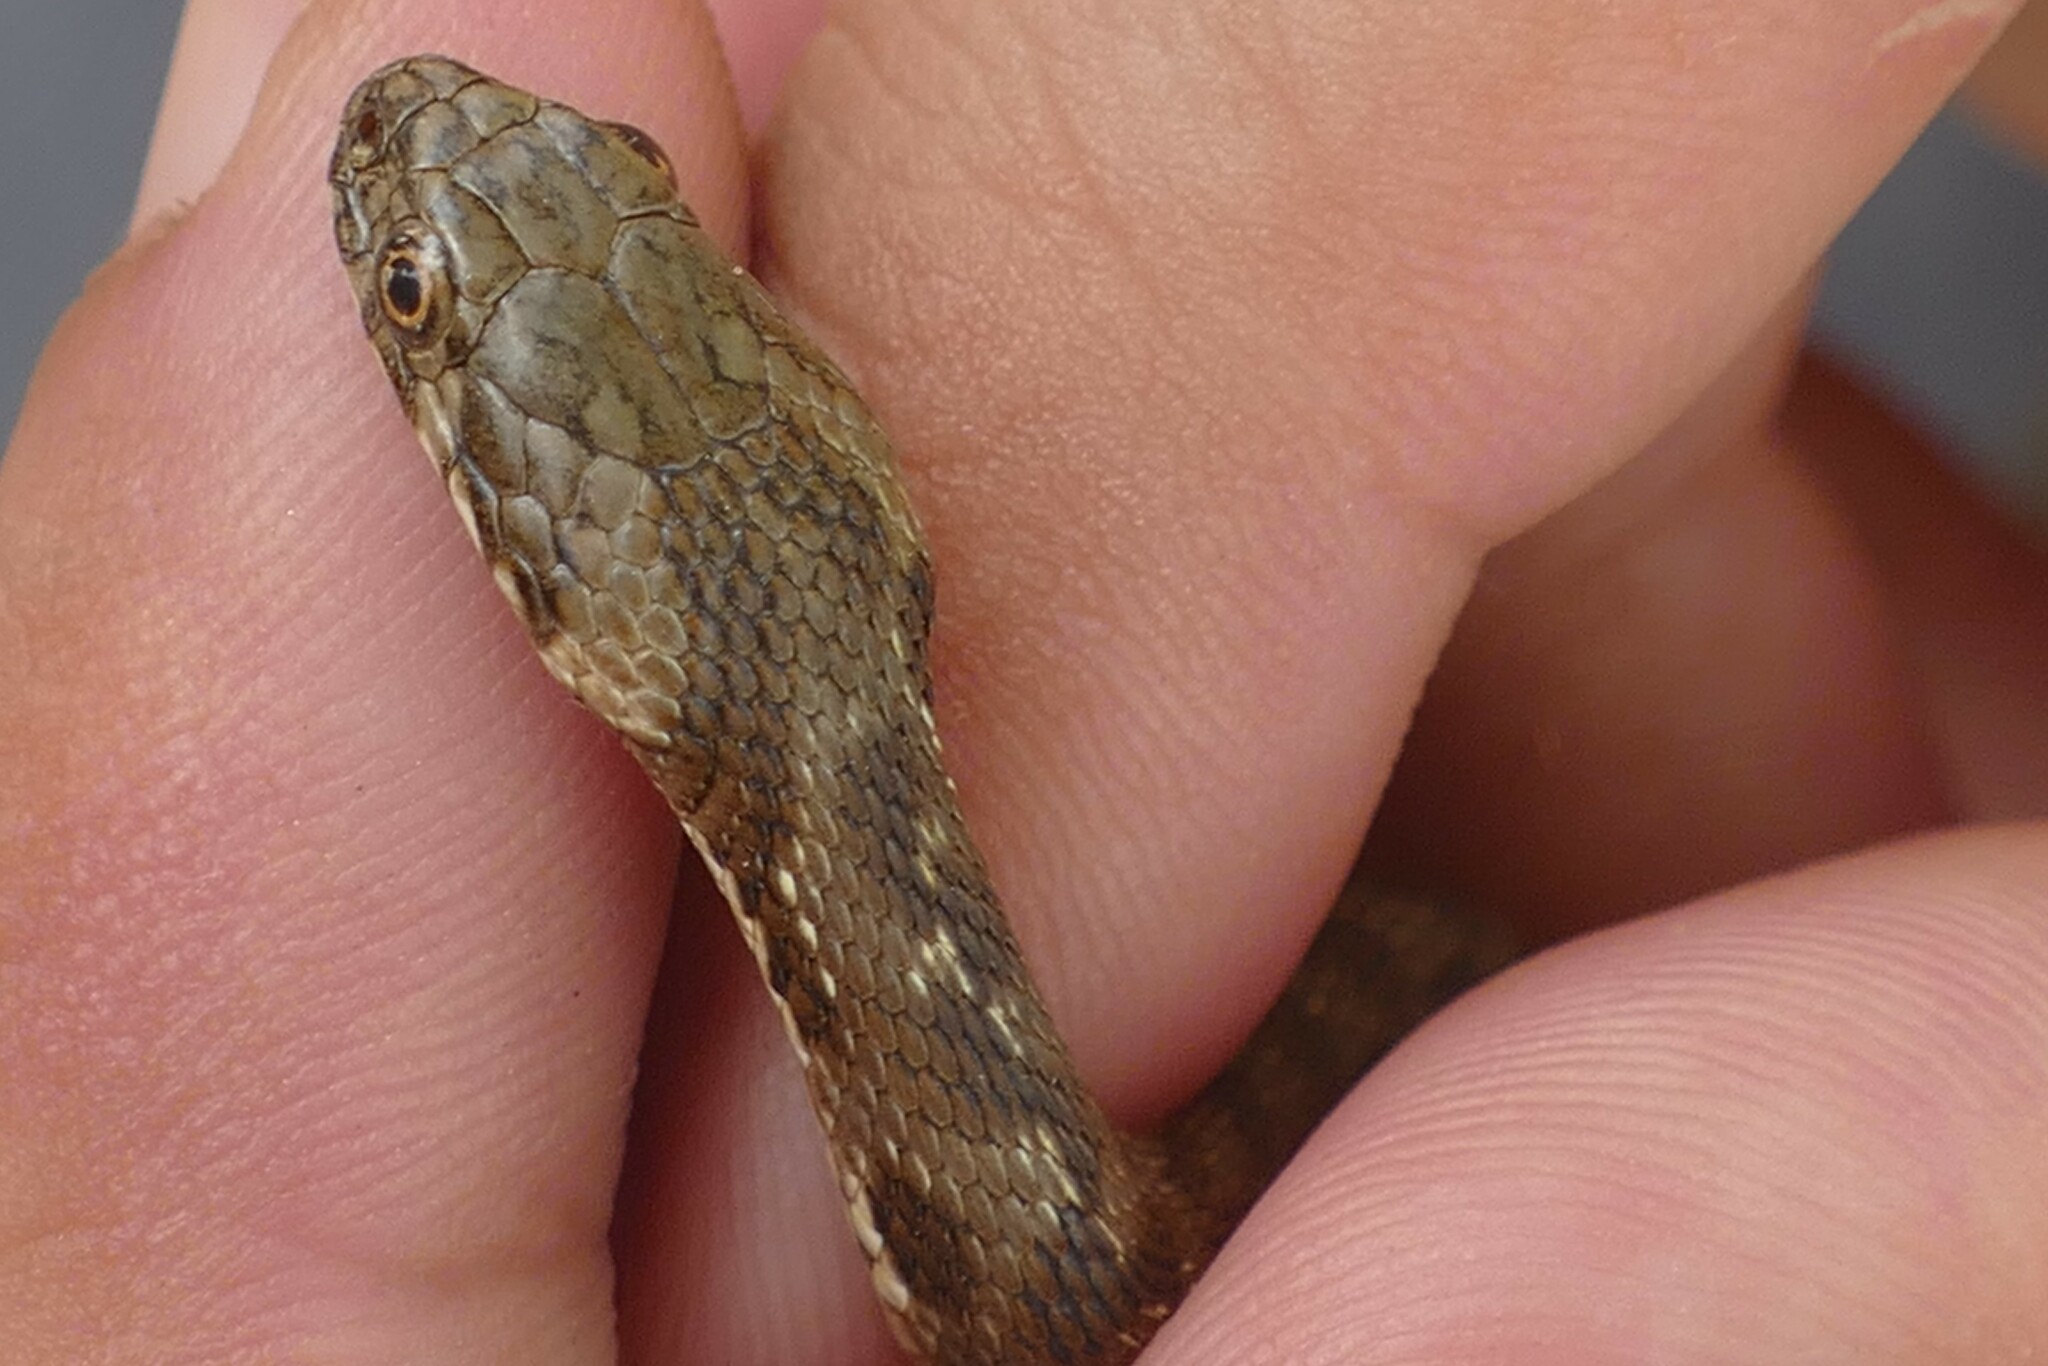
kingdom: Animalia
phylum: Chordata
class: Squamata
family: Colubridae
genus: Natrix
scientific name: Natrix maura
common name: Viperine water snake
